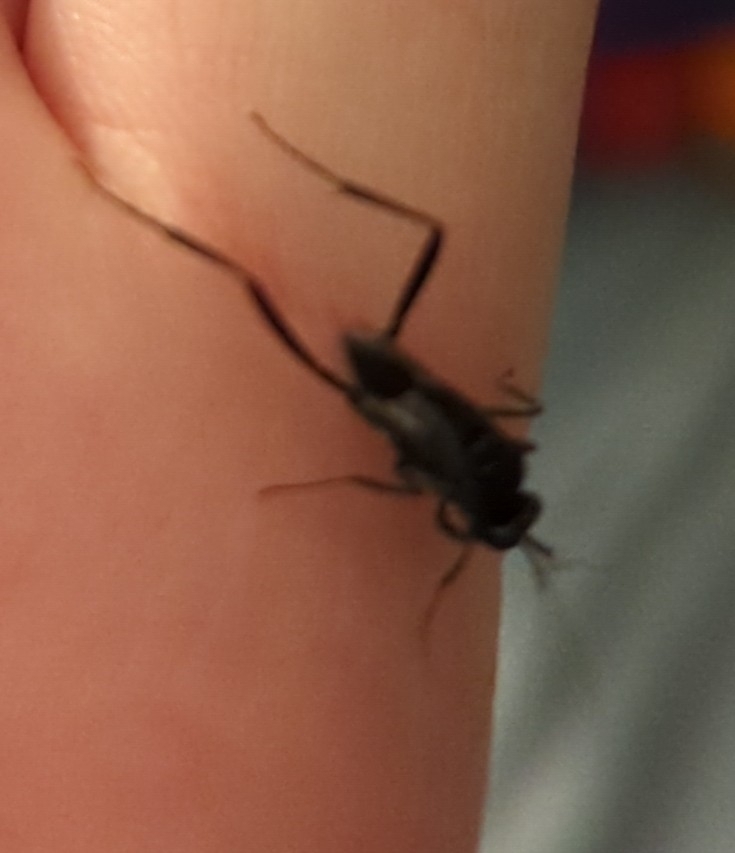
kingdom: Animalia
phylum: Arthropoda
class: Insecta
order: Hymenoptera
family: Evaniidae
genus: Evania
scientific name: Evania appendigaster
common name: Ensign wasp
